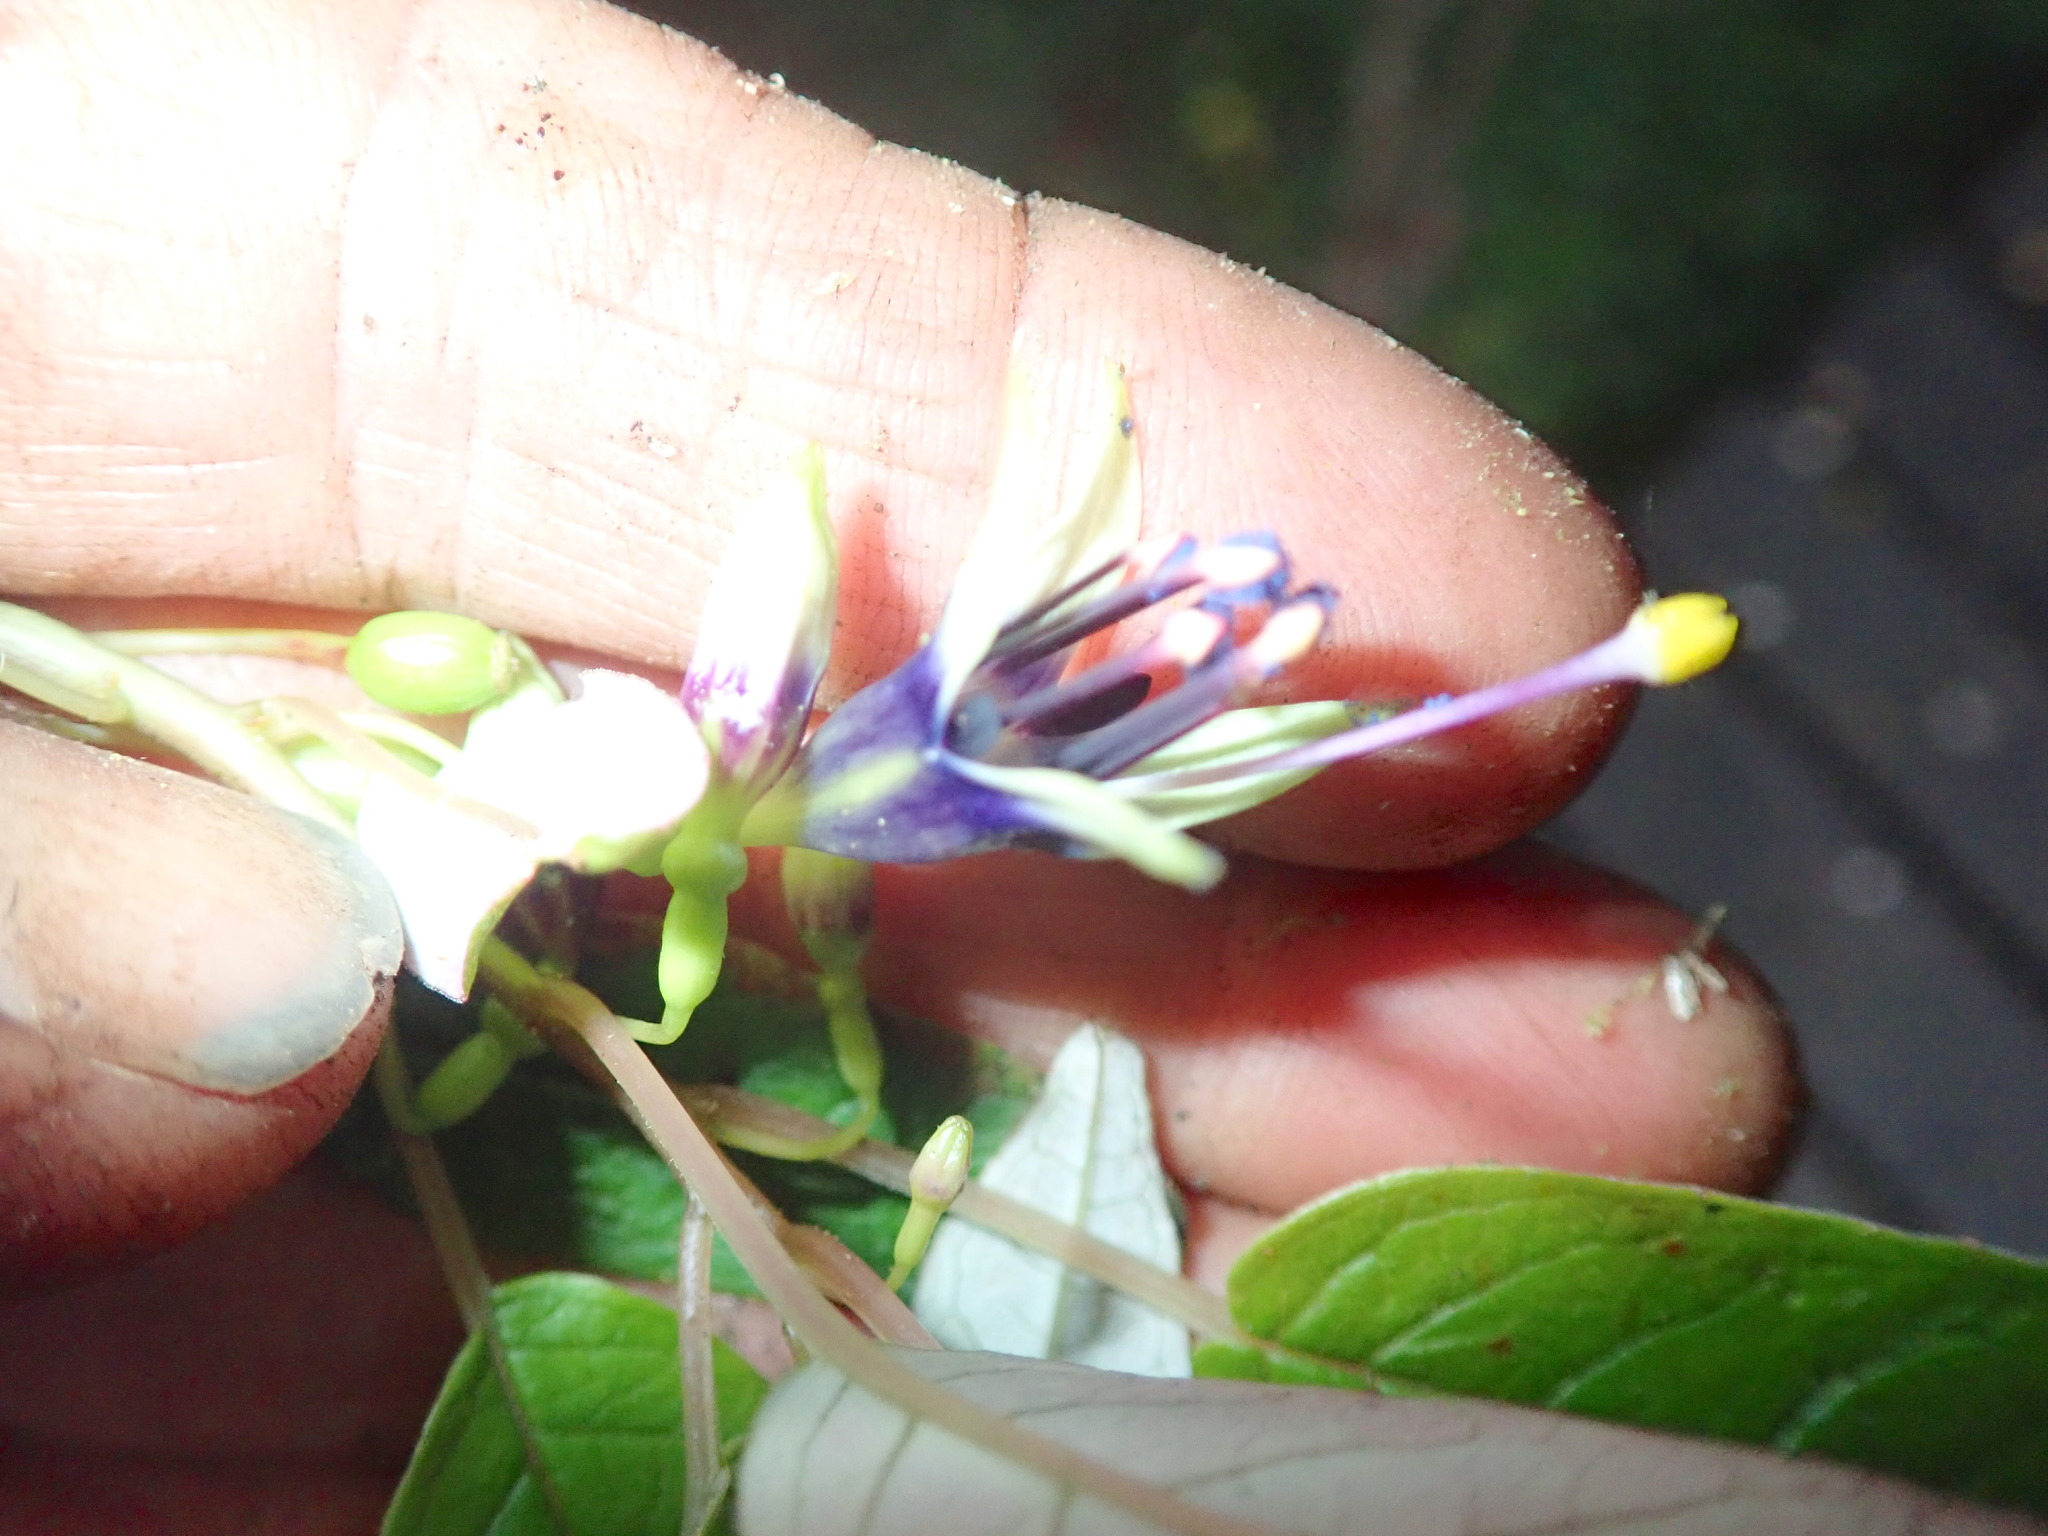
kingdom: Plantae
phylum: Tracheophyta
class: Magnoliopsida
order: Myrtales
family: Onagraceae
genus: Fuchsia
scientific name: Fuchsia excorticata
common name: Tree fuchsia
